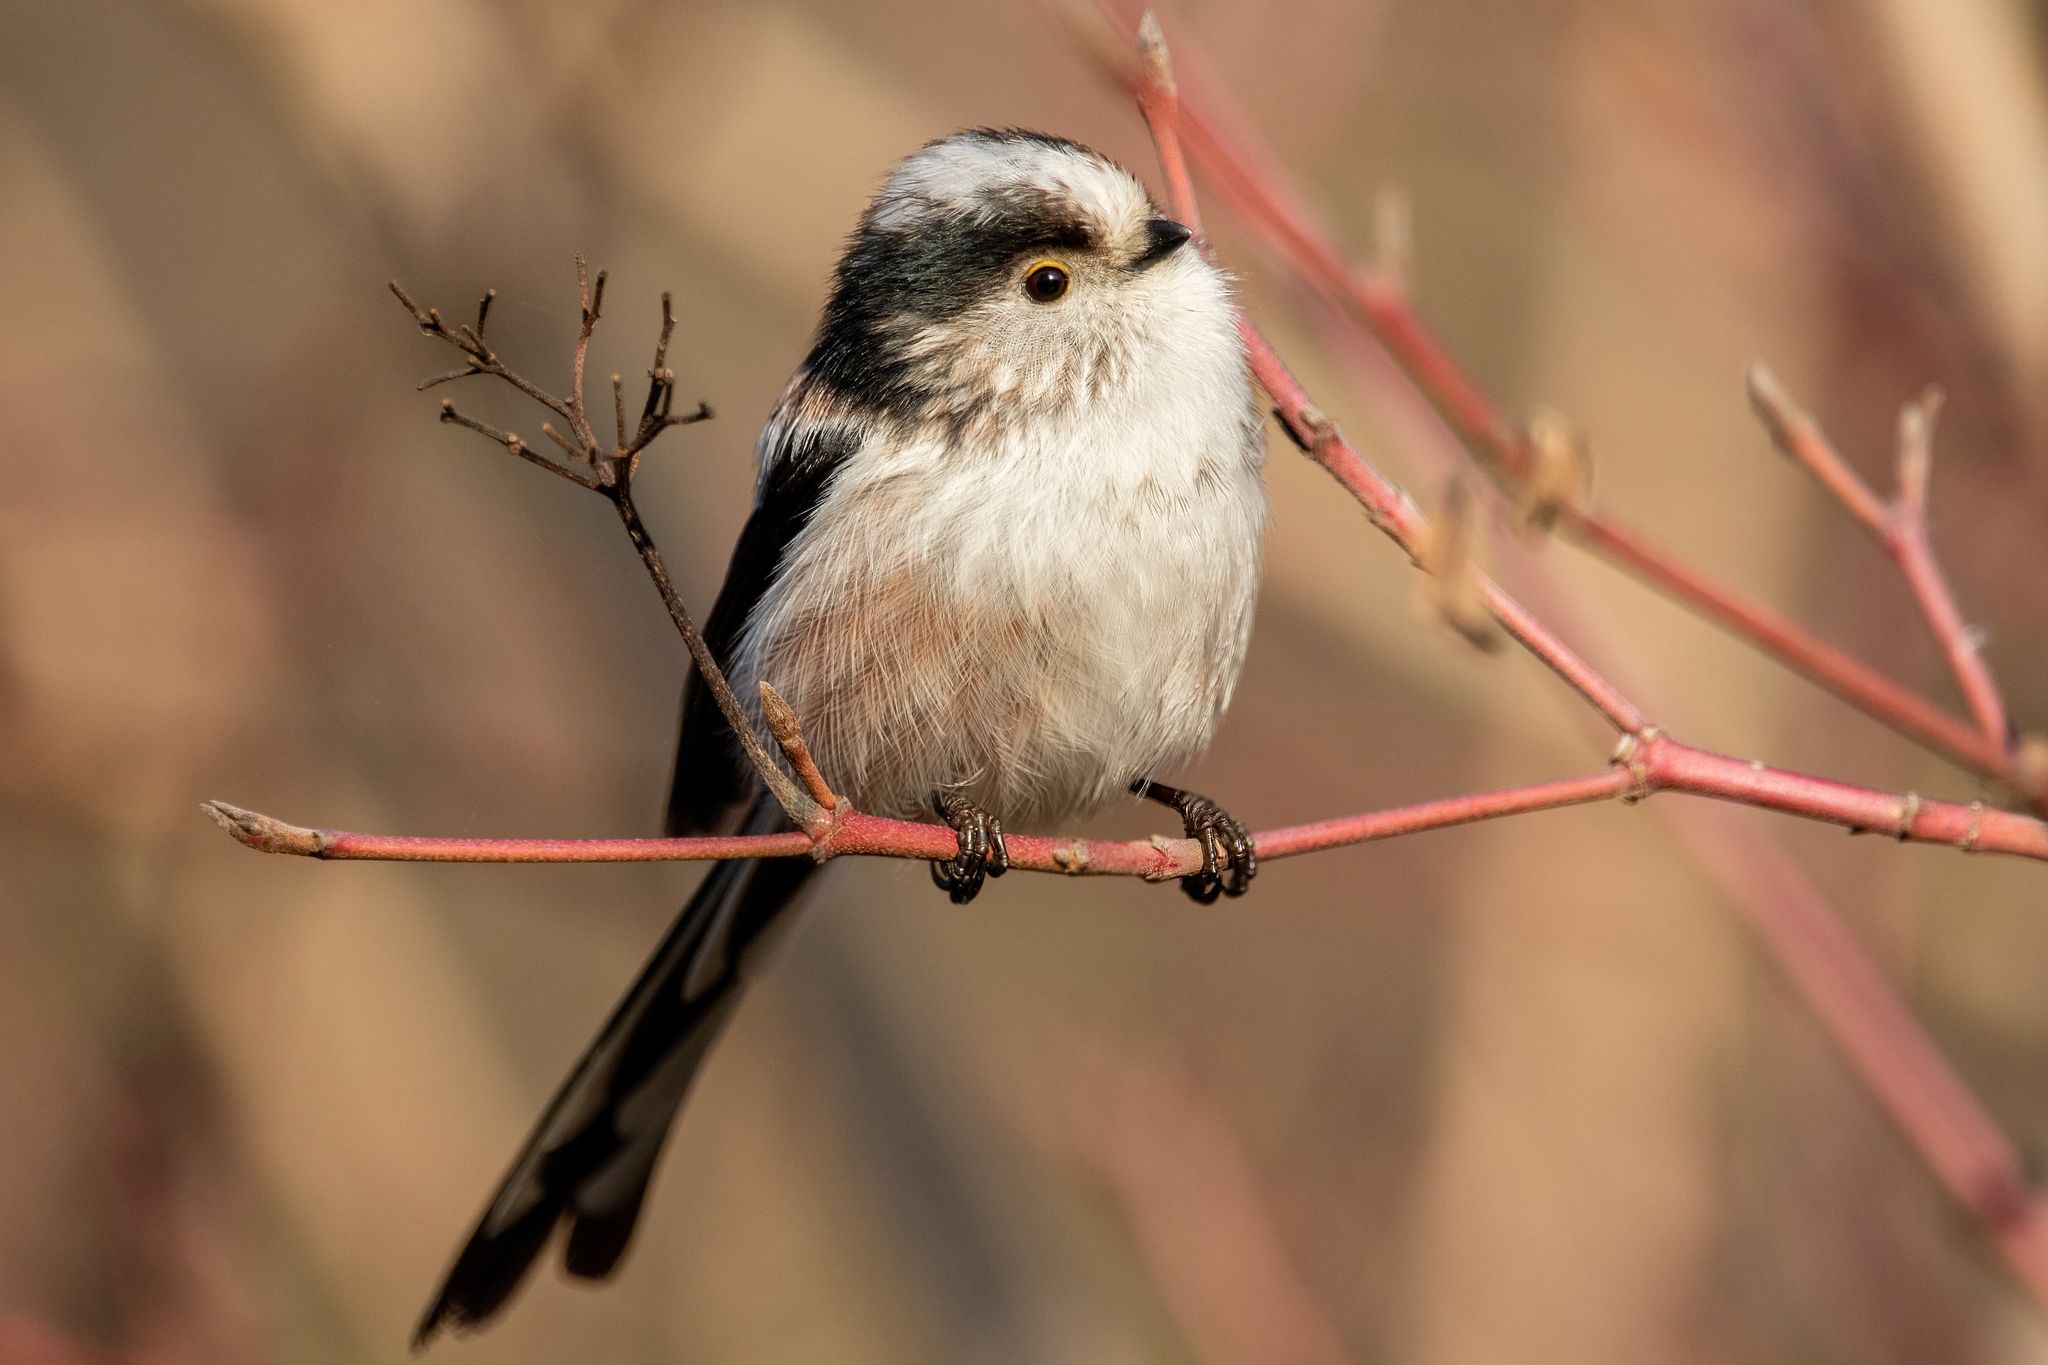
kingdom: Animalia
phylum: Chordata
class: Aves
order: Passeriformes
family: Aegithalidae
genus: Aegithalos
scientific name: Aegithalos caudatus
